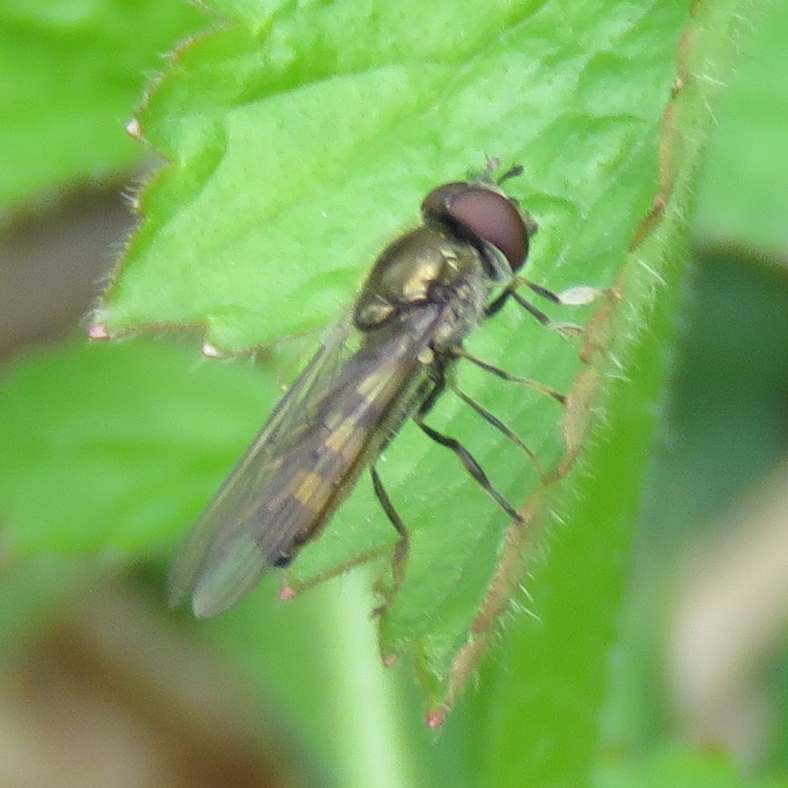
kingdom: Animalia
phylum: Arthropoda
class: Insecta
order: Diptera
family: Syrphidae
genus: Platycheirus
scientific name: Platycheirus ciliger
